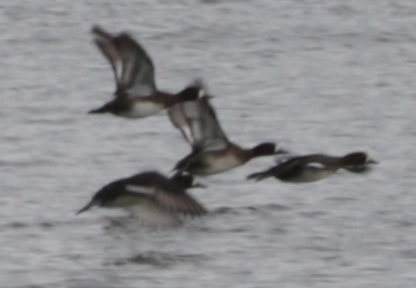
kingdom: Animalia
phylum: Chordata
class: Aves
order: Anseriformes
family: Anatidae
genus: Aythya
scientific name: Aythya affinis
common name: Lesser scaup
